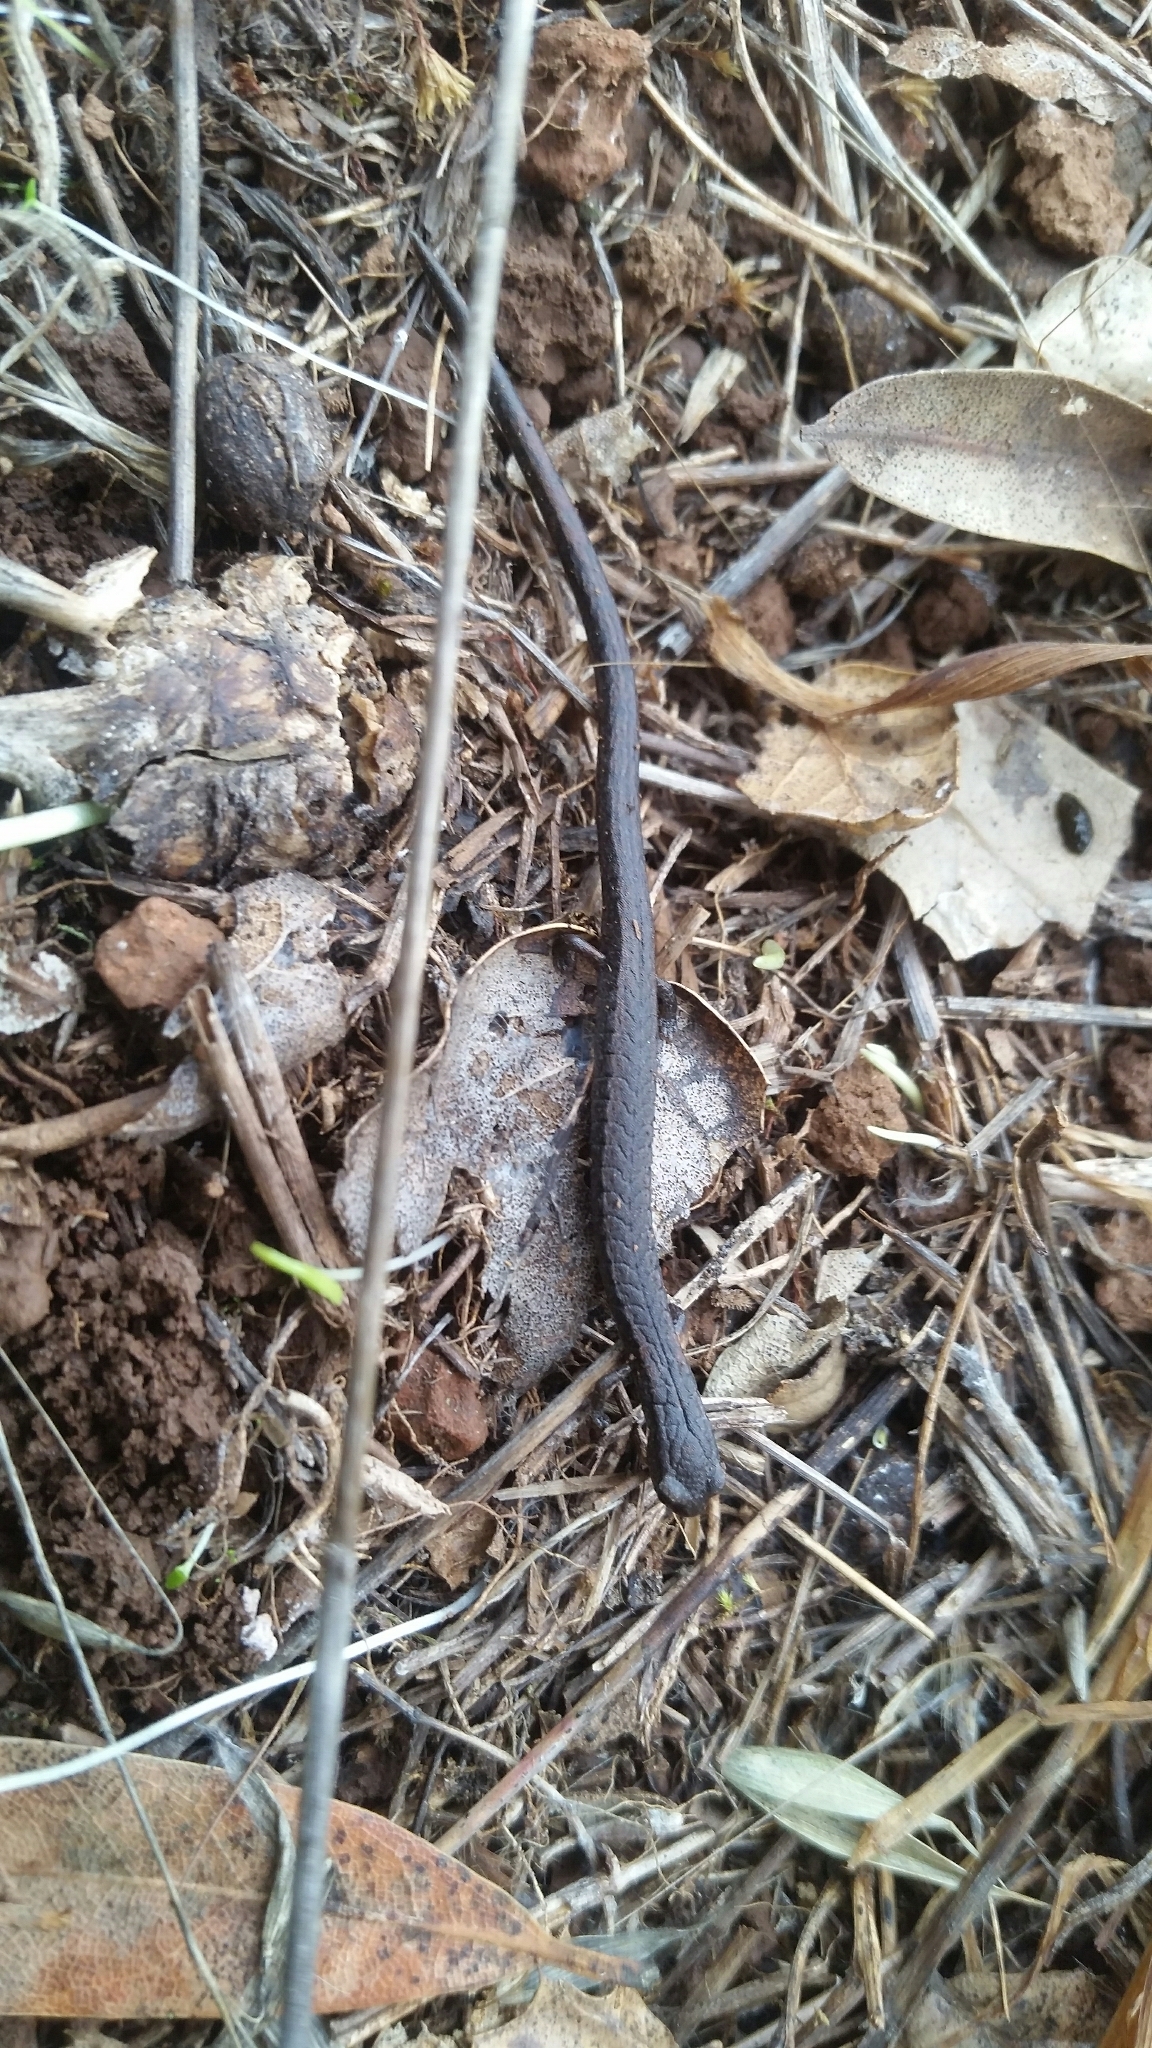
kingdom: Animalia
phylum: Chordata
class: Amphibia
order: Caudata
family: Plethodontidae
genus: Batrachoseps
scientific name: Batrachoseps attenuatus
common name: California slender salamander
